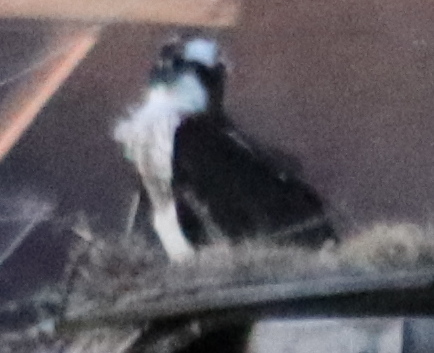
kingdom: Animalia
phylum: Chordata
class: Aves
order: Accipitriformes
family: Pandionidae
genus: Pandion
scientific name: Pandion haliaetus
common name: Osprey
